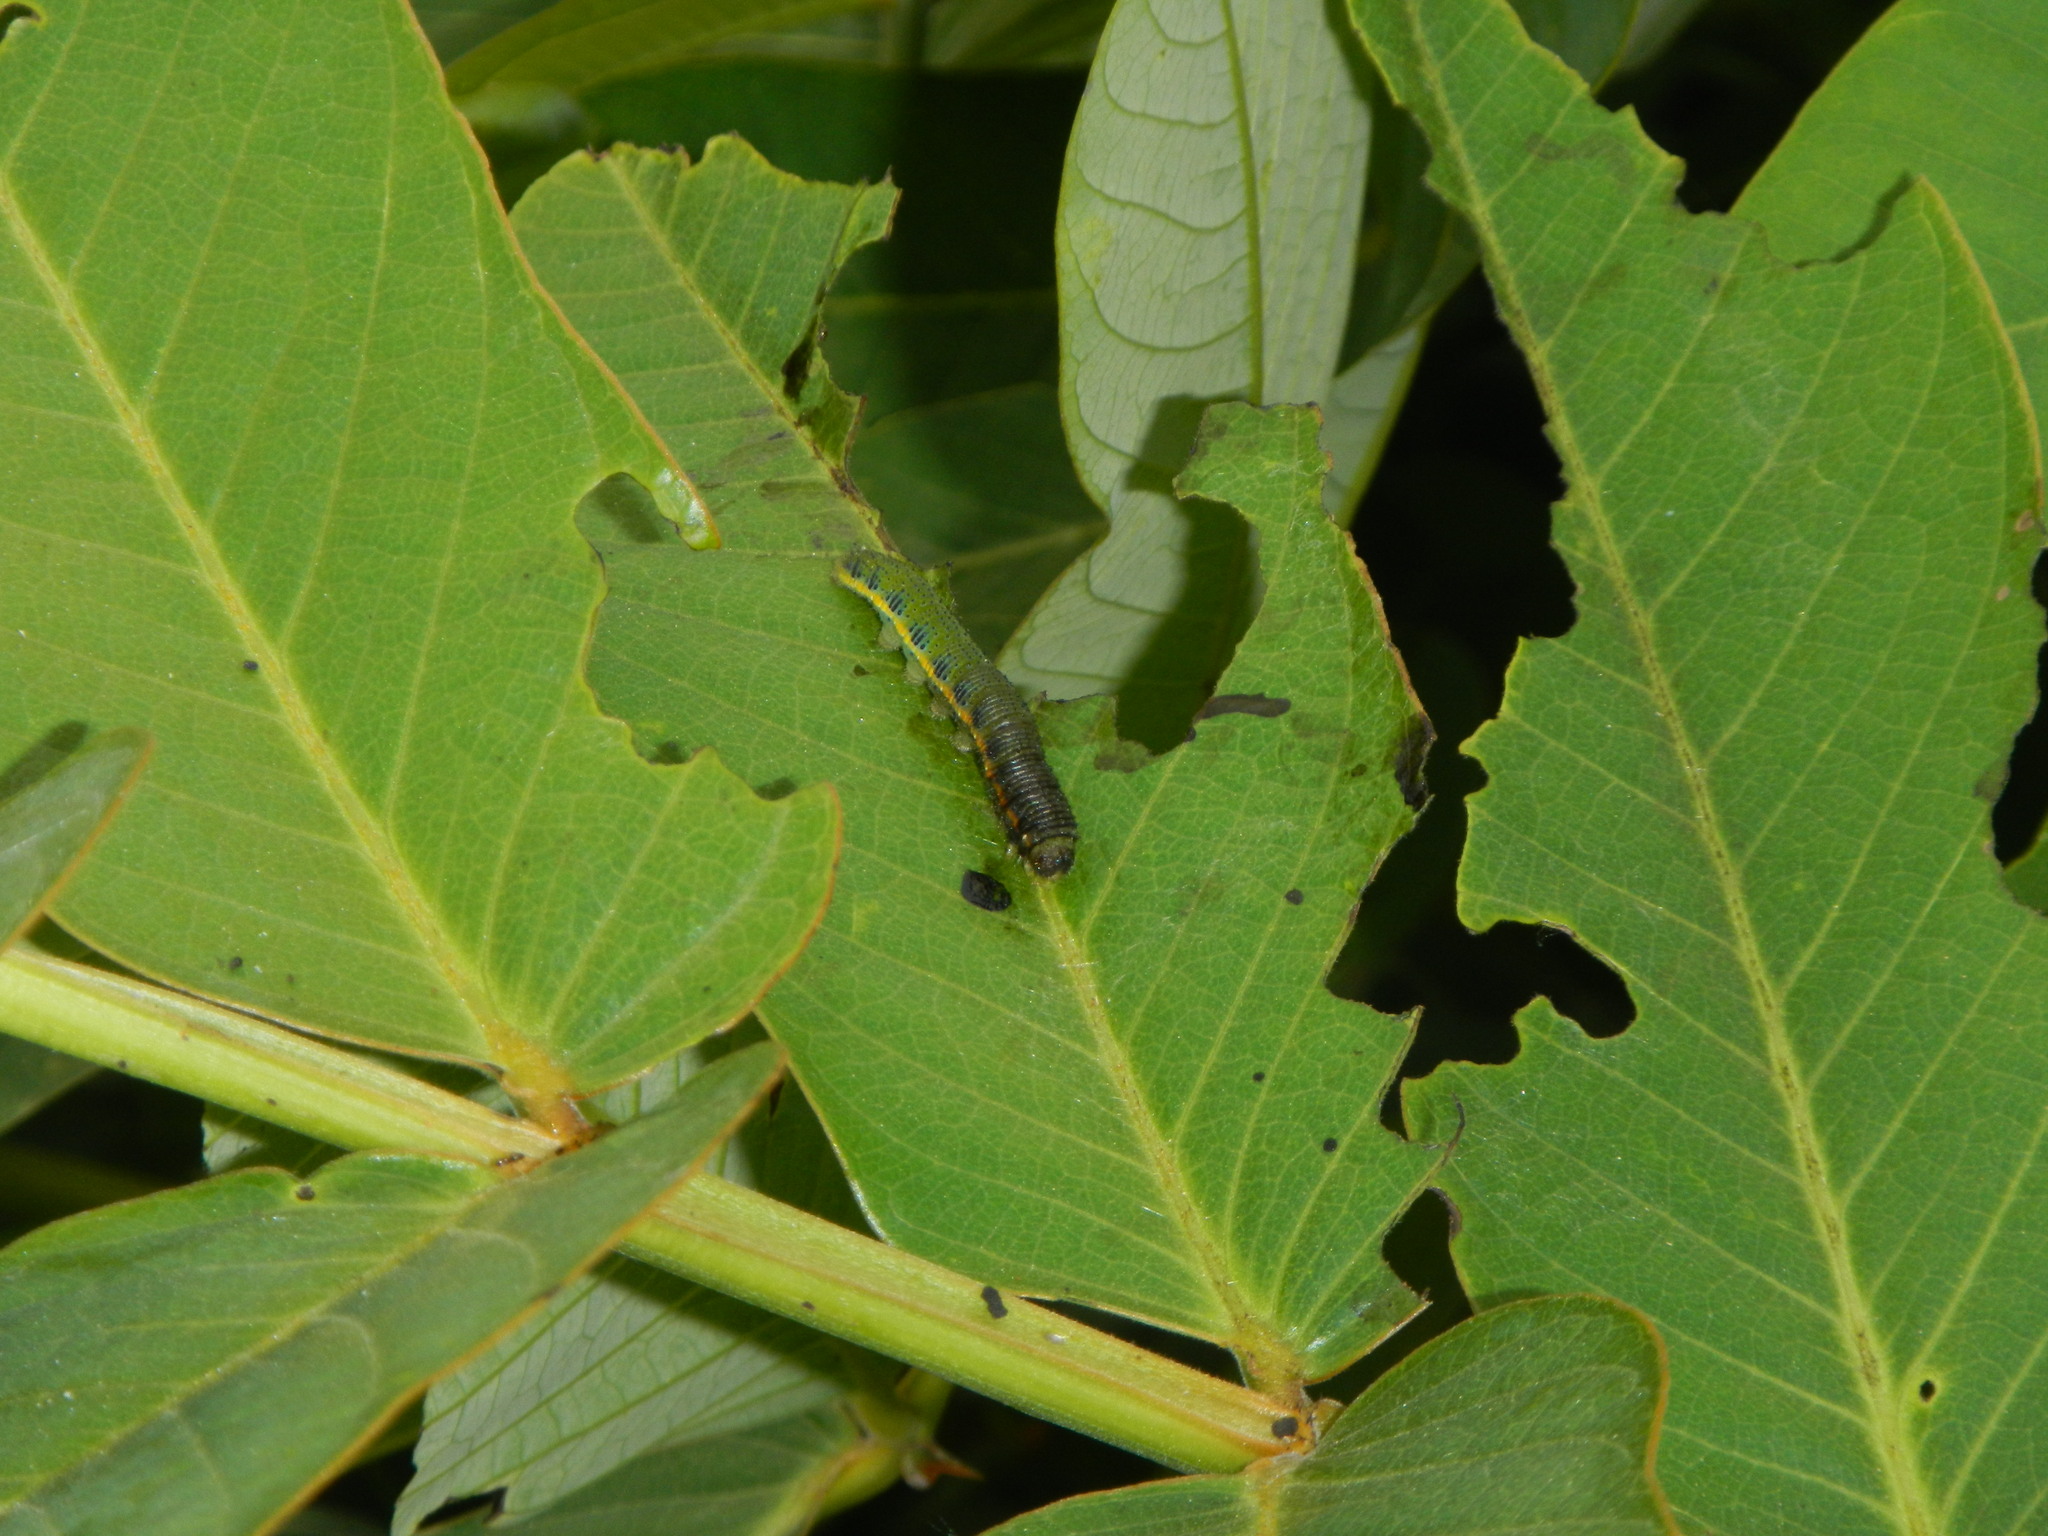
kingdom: Animalia
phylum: Arthropoda
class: Insecta
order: Lepidoptera
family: Pieridae
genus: Phoebis
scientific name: Phoebis marcellina
